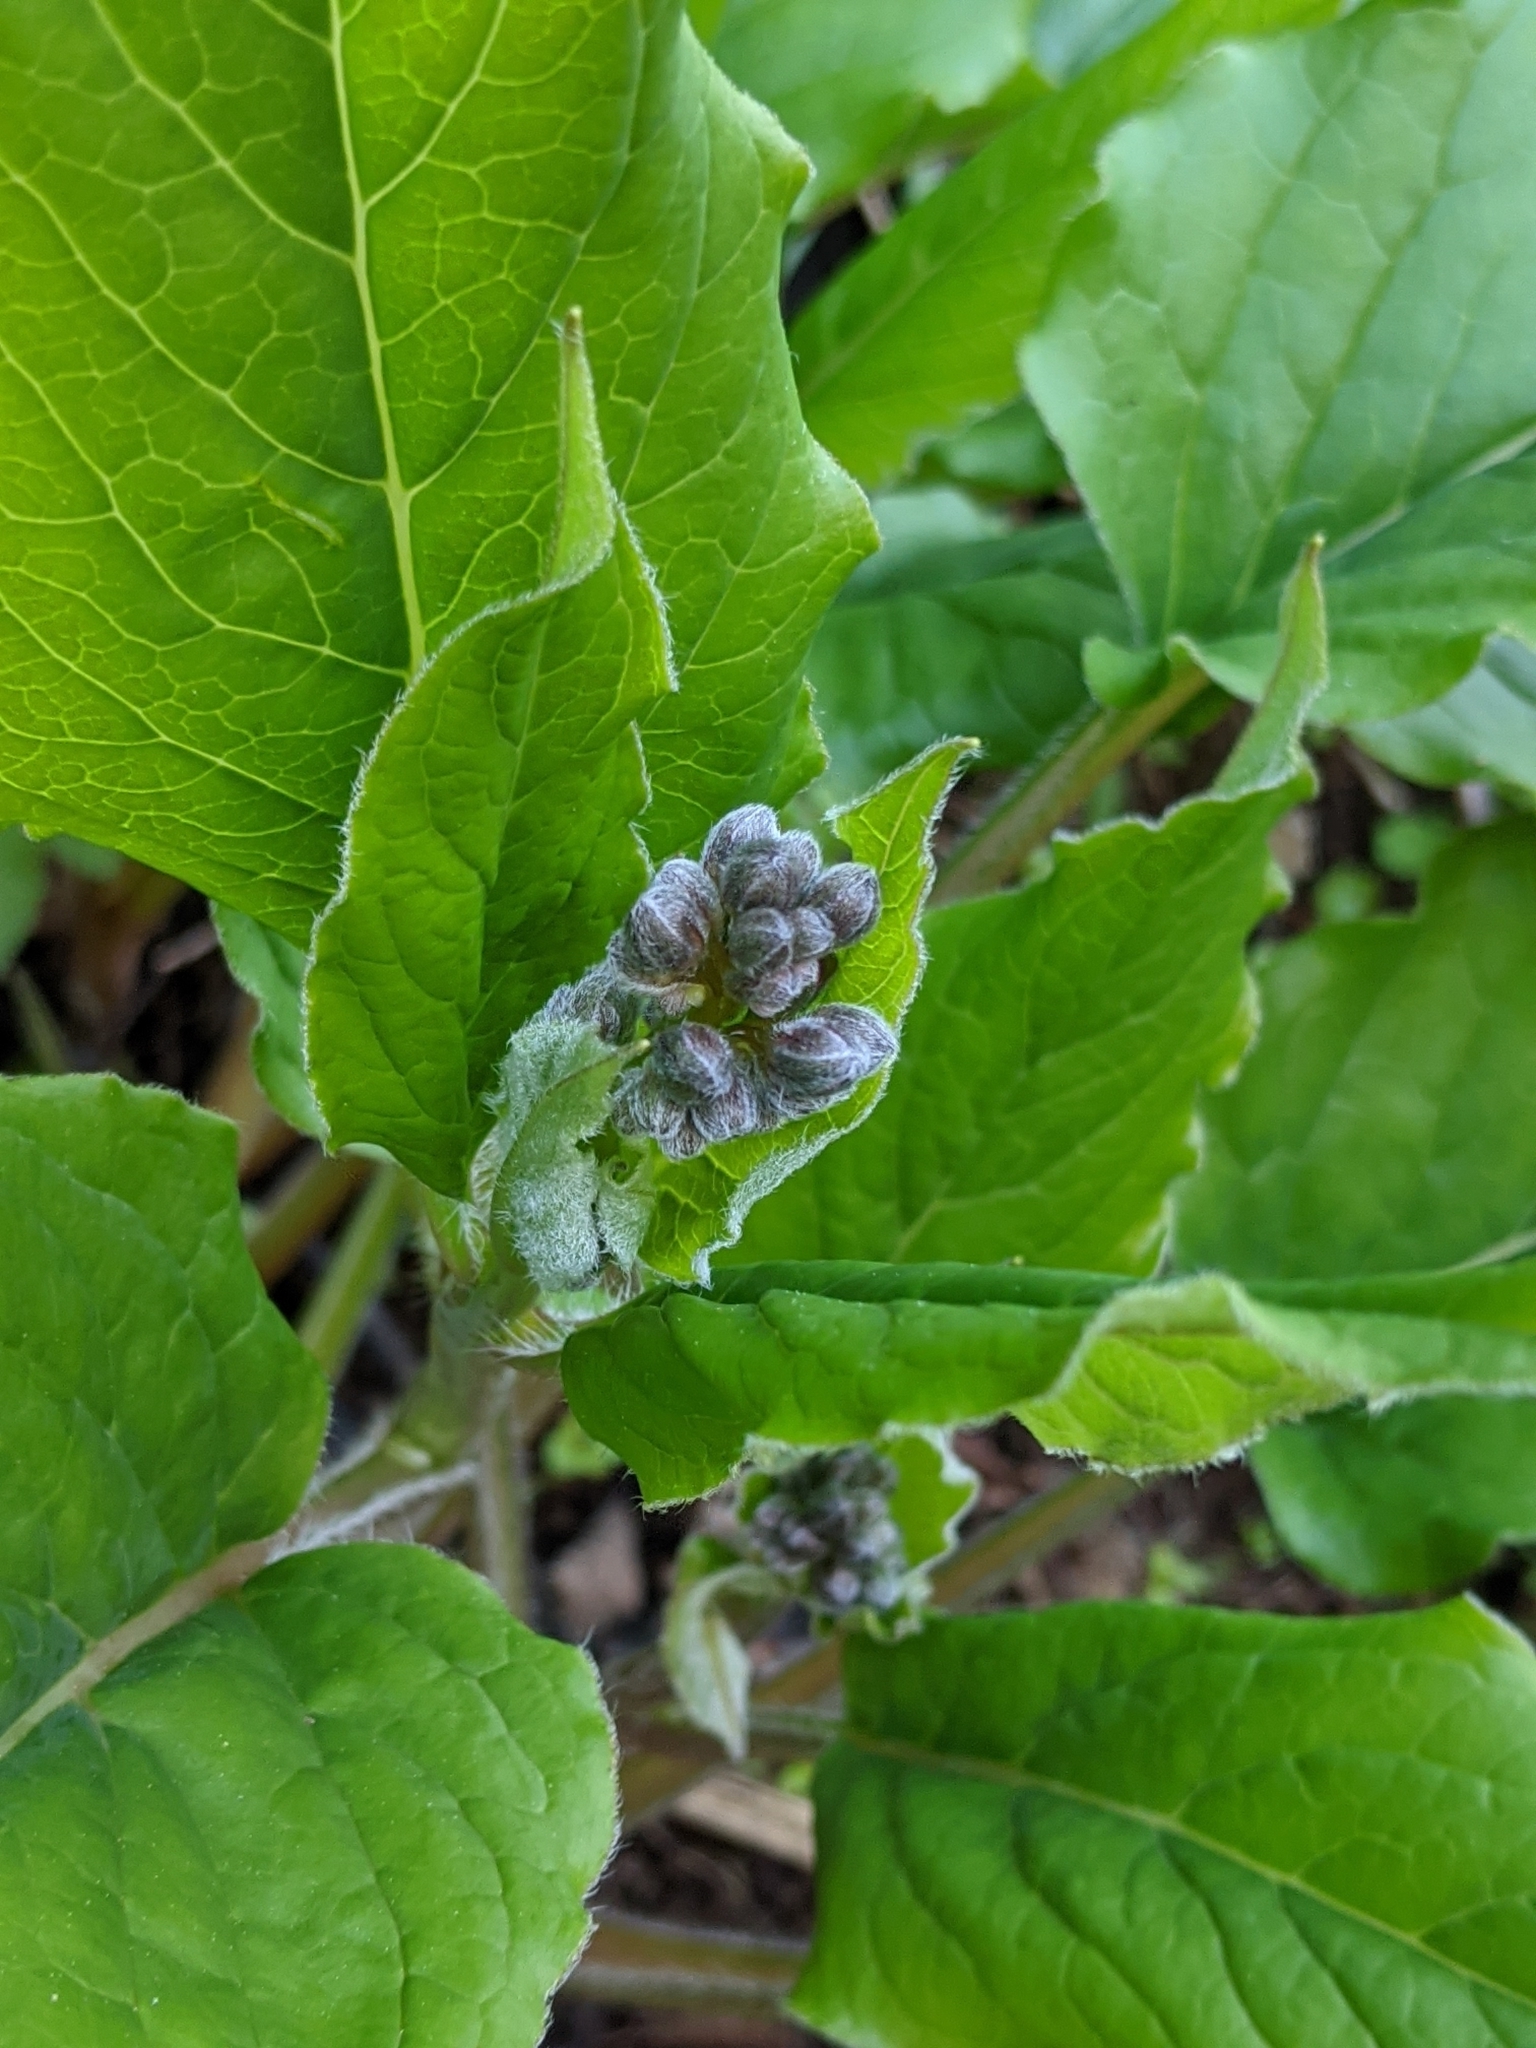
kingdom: Plantae
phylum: Tracheophyta
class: Magnoliopsida
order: Boraginales
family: Boraginaceae
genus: Adelinia
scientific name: Adelinia grande
